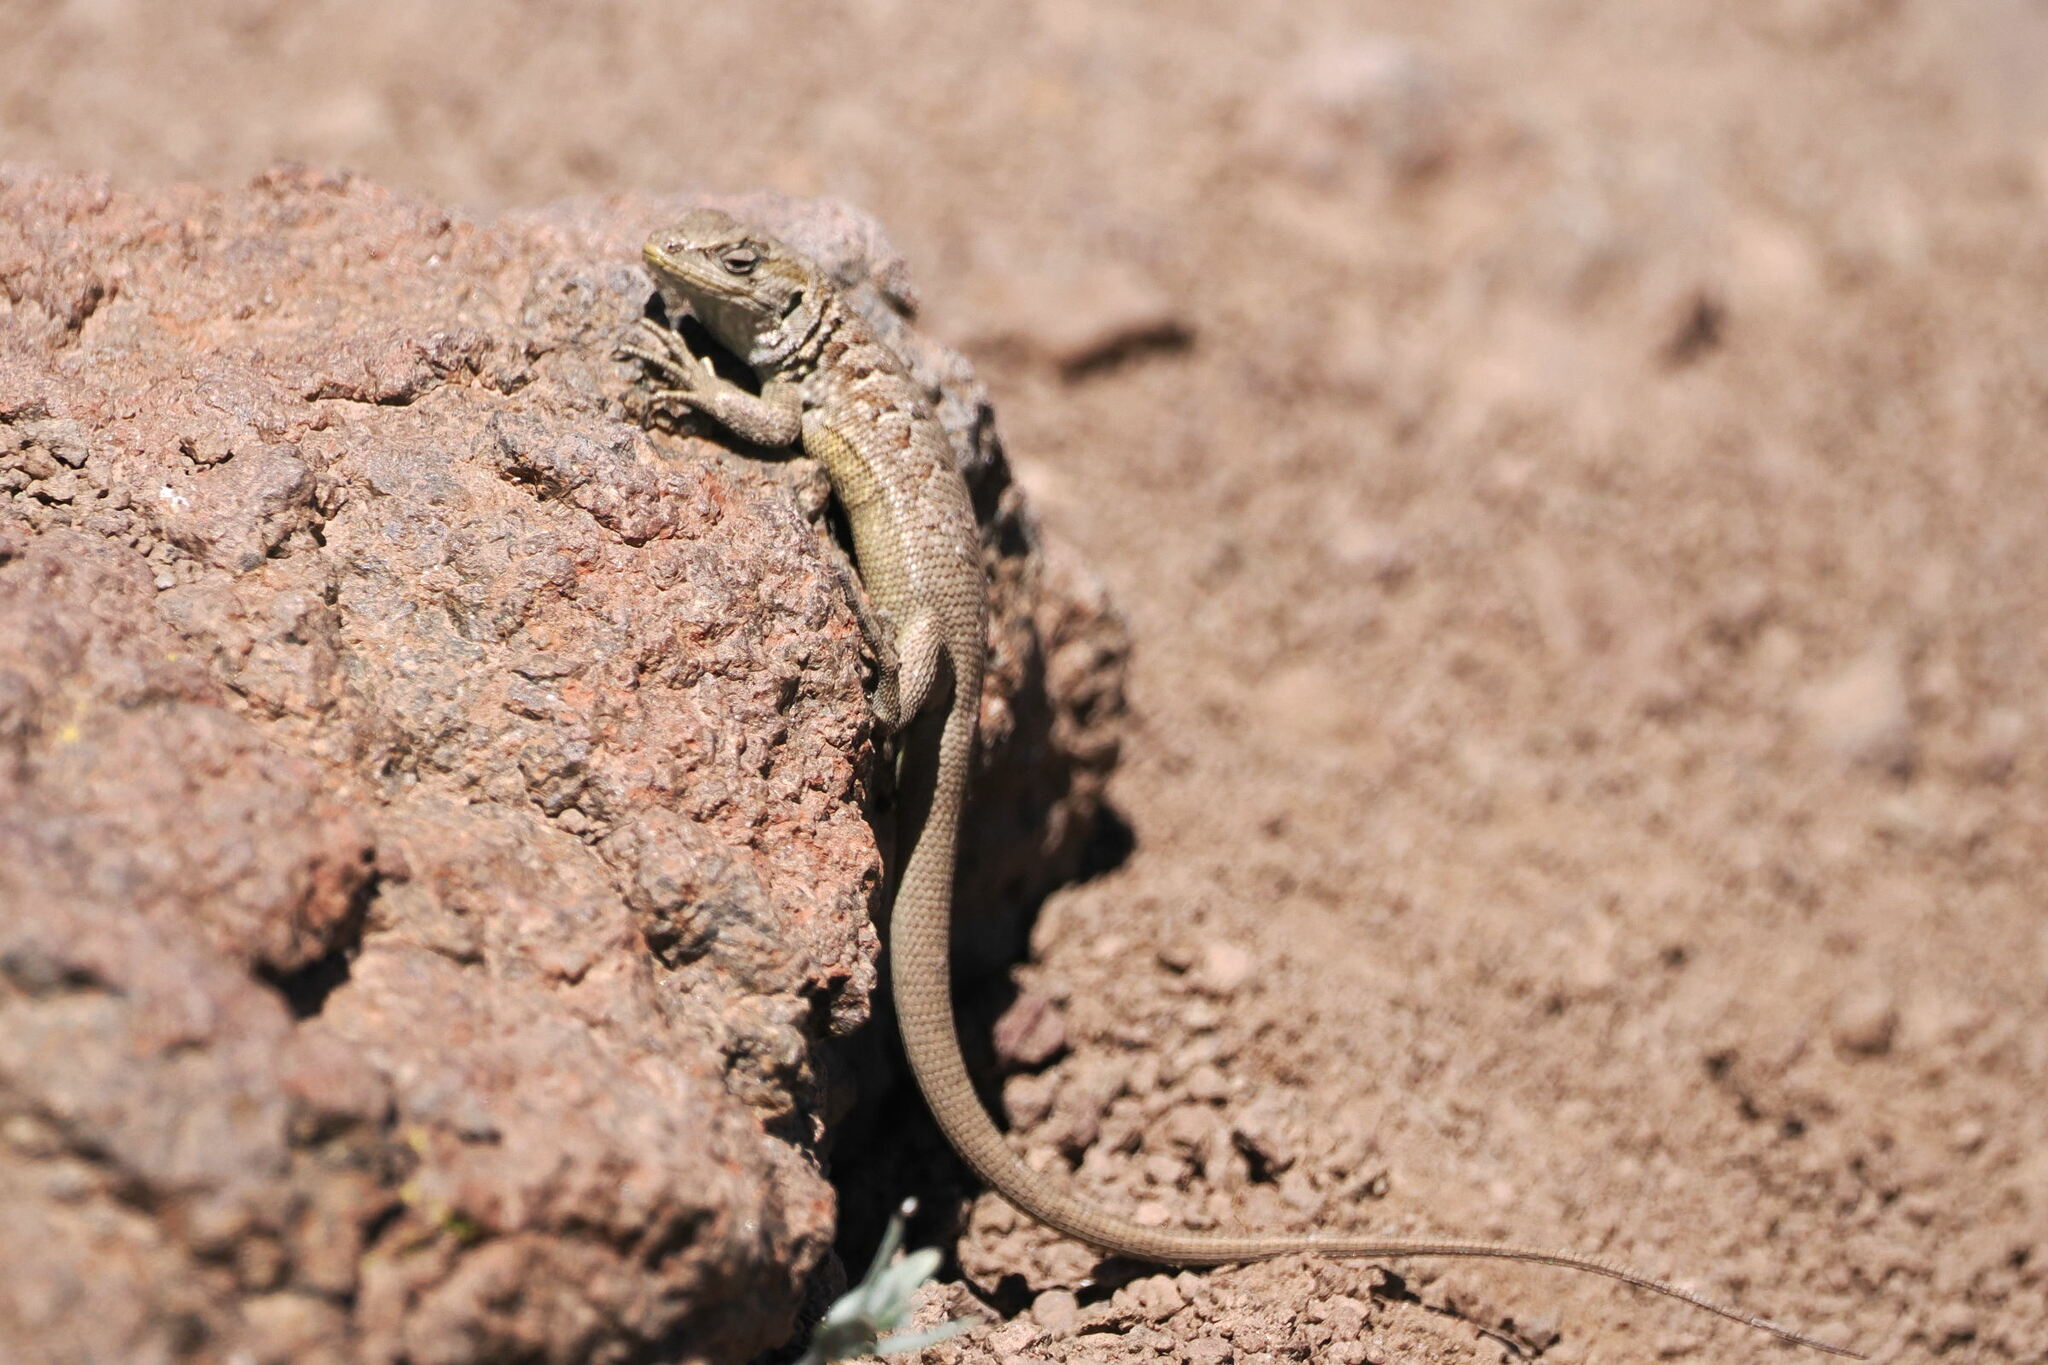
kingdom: Animalia
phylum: Chordata
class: Squamata
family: Liolaemidae
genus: Liolaemus
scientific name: Liolaemus bellii
